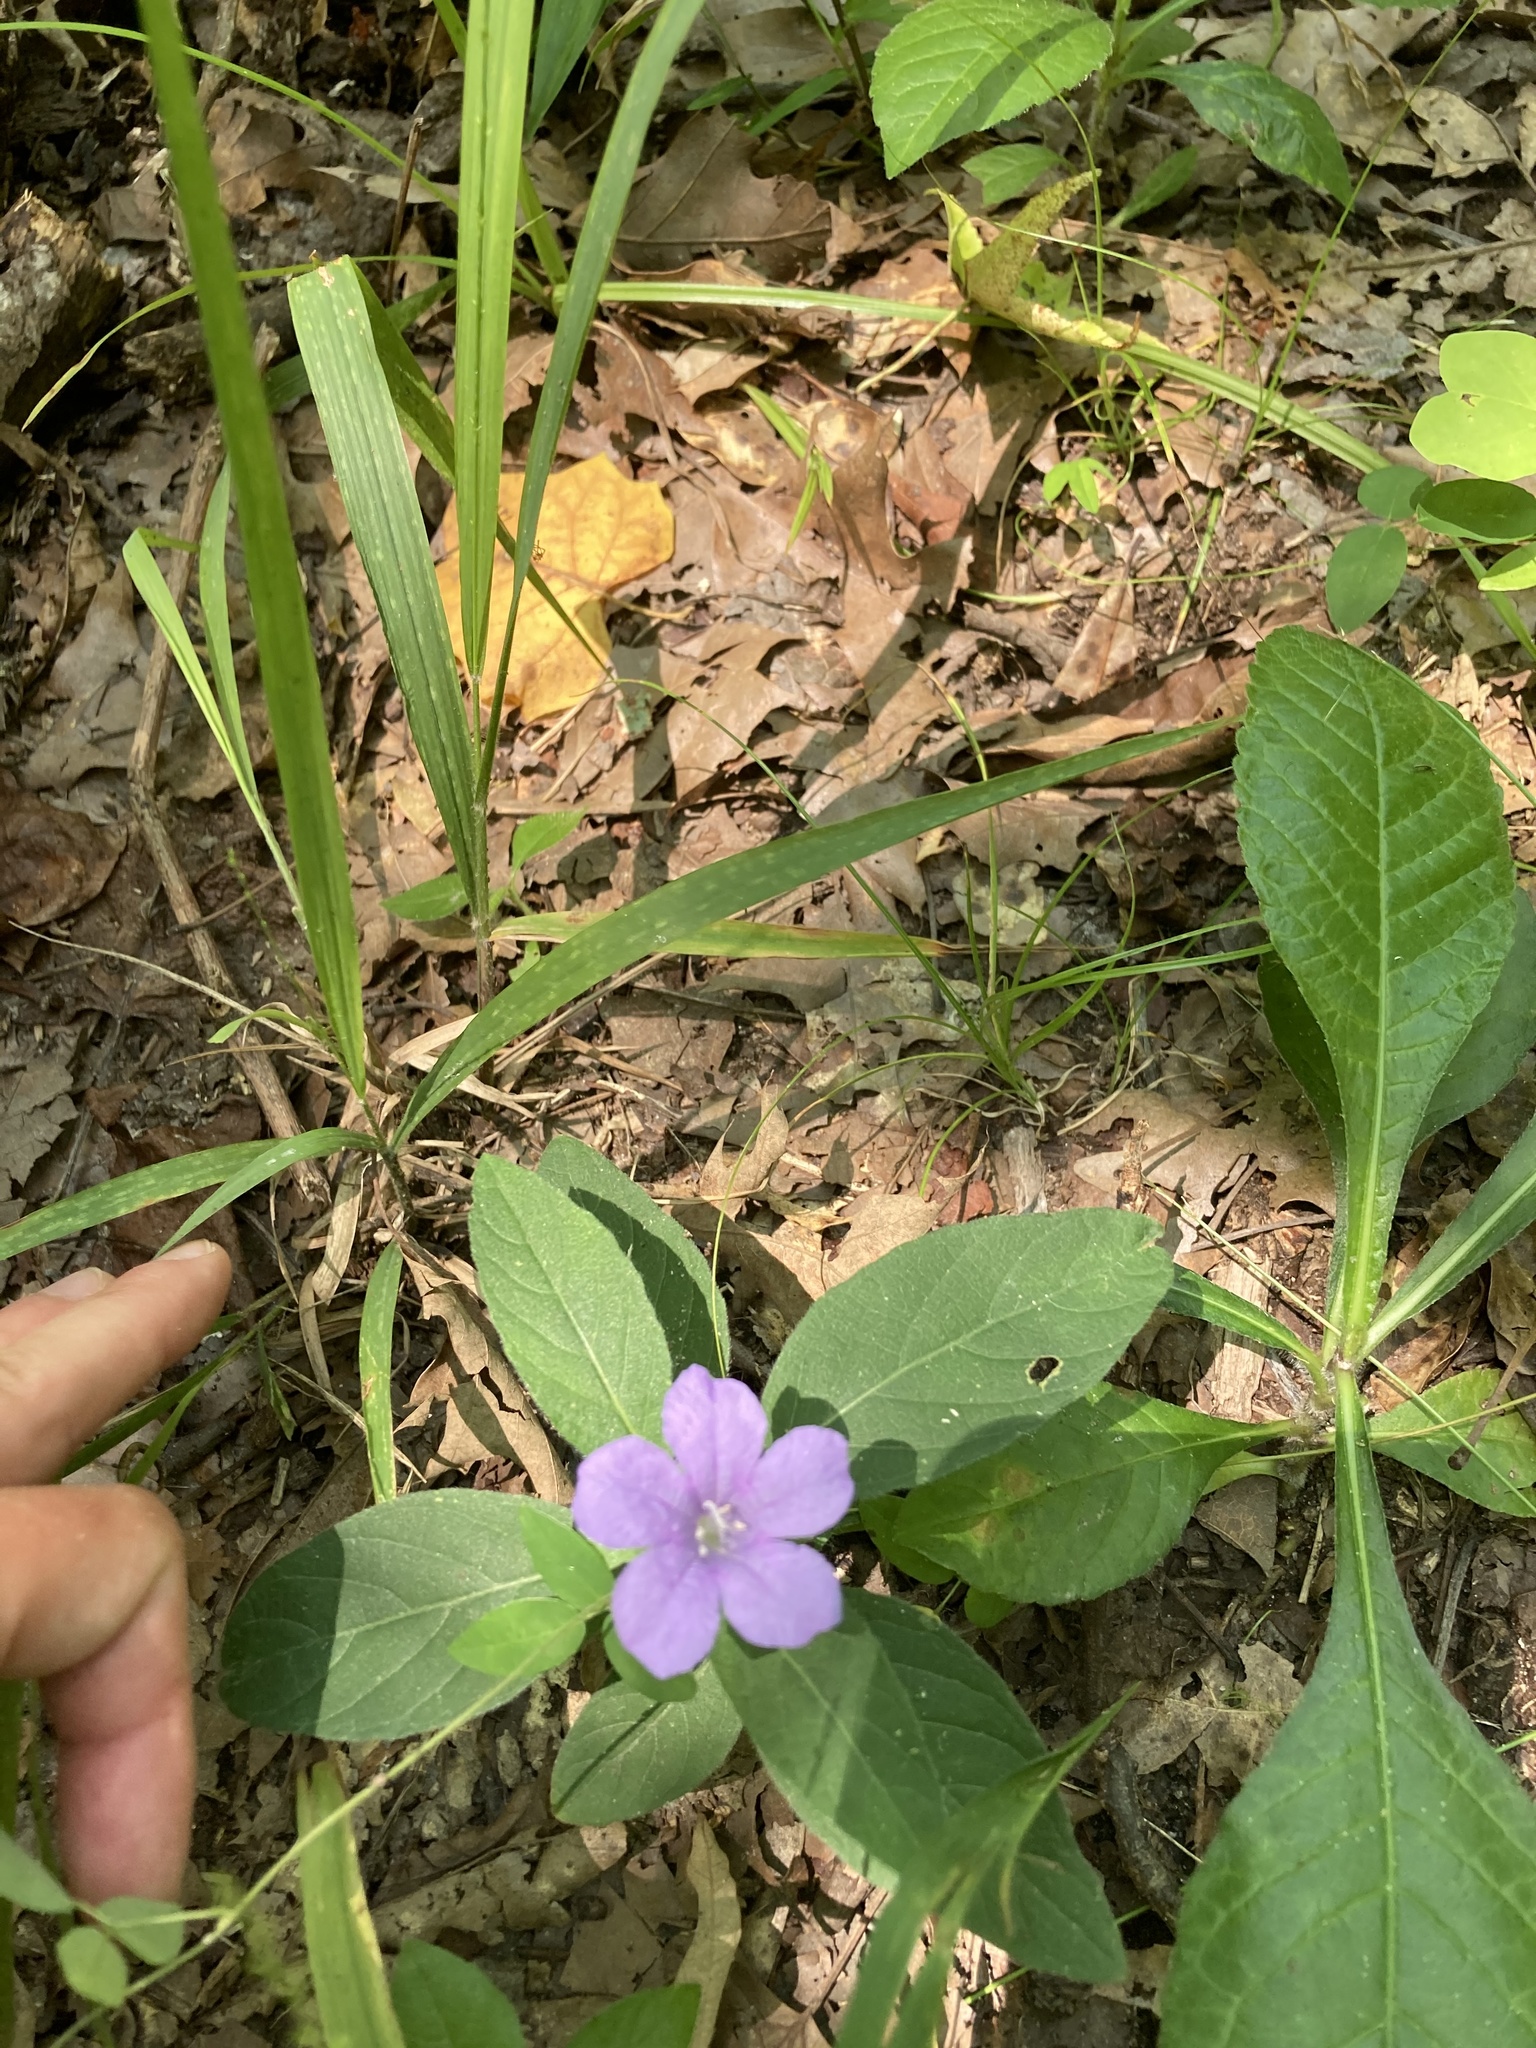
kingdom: Plantae
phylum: Tracheophyta
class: Magnoliopsida
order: Lamiales
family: Acanthaceae
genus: Ruellia
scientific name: Ruellia caroliniensis
